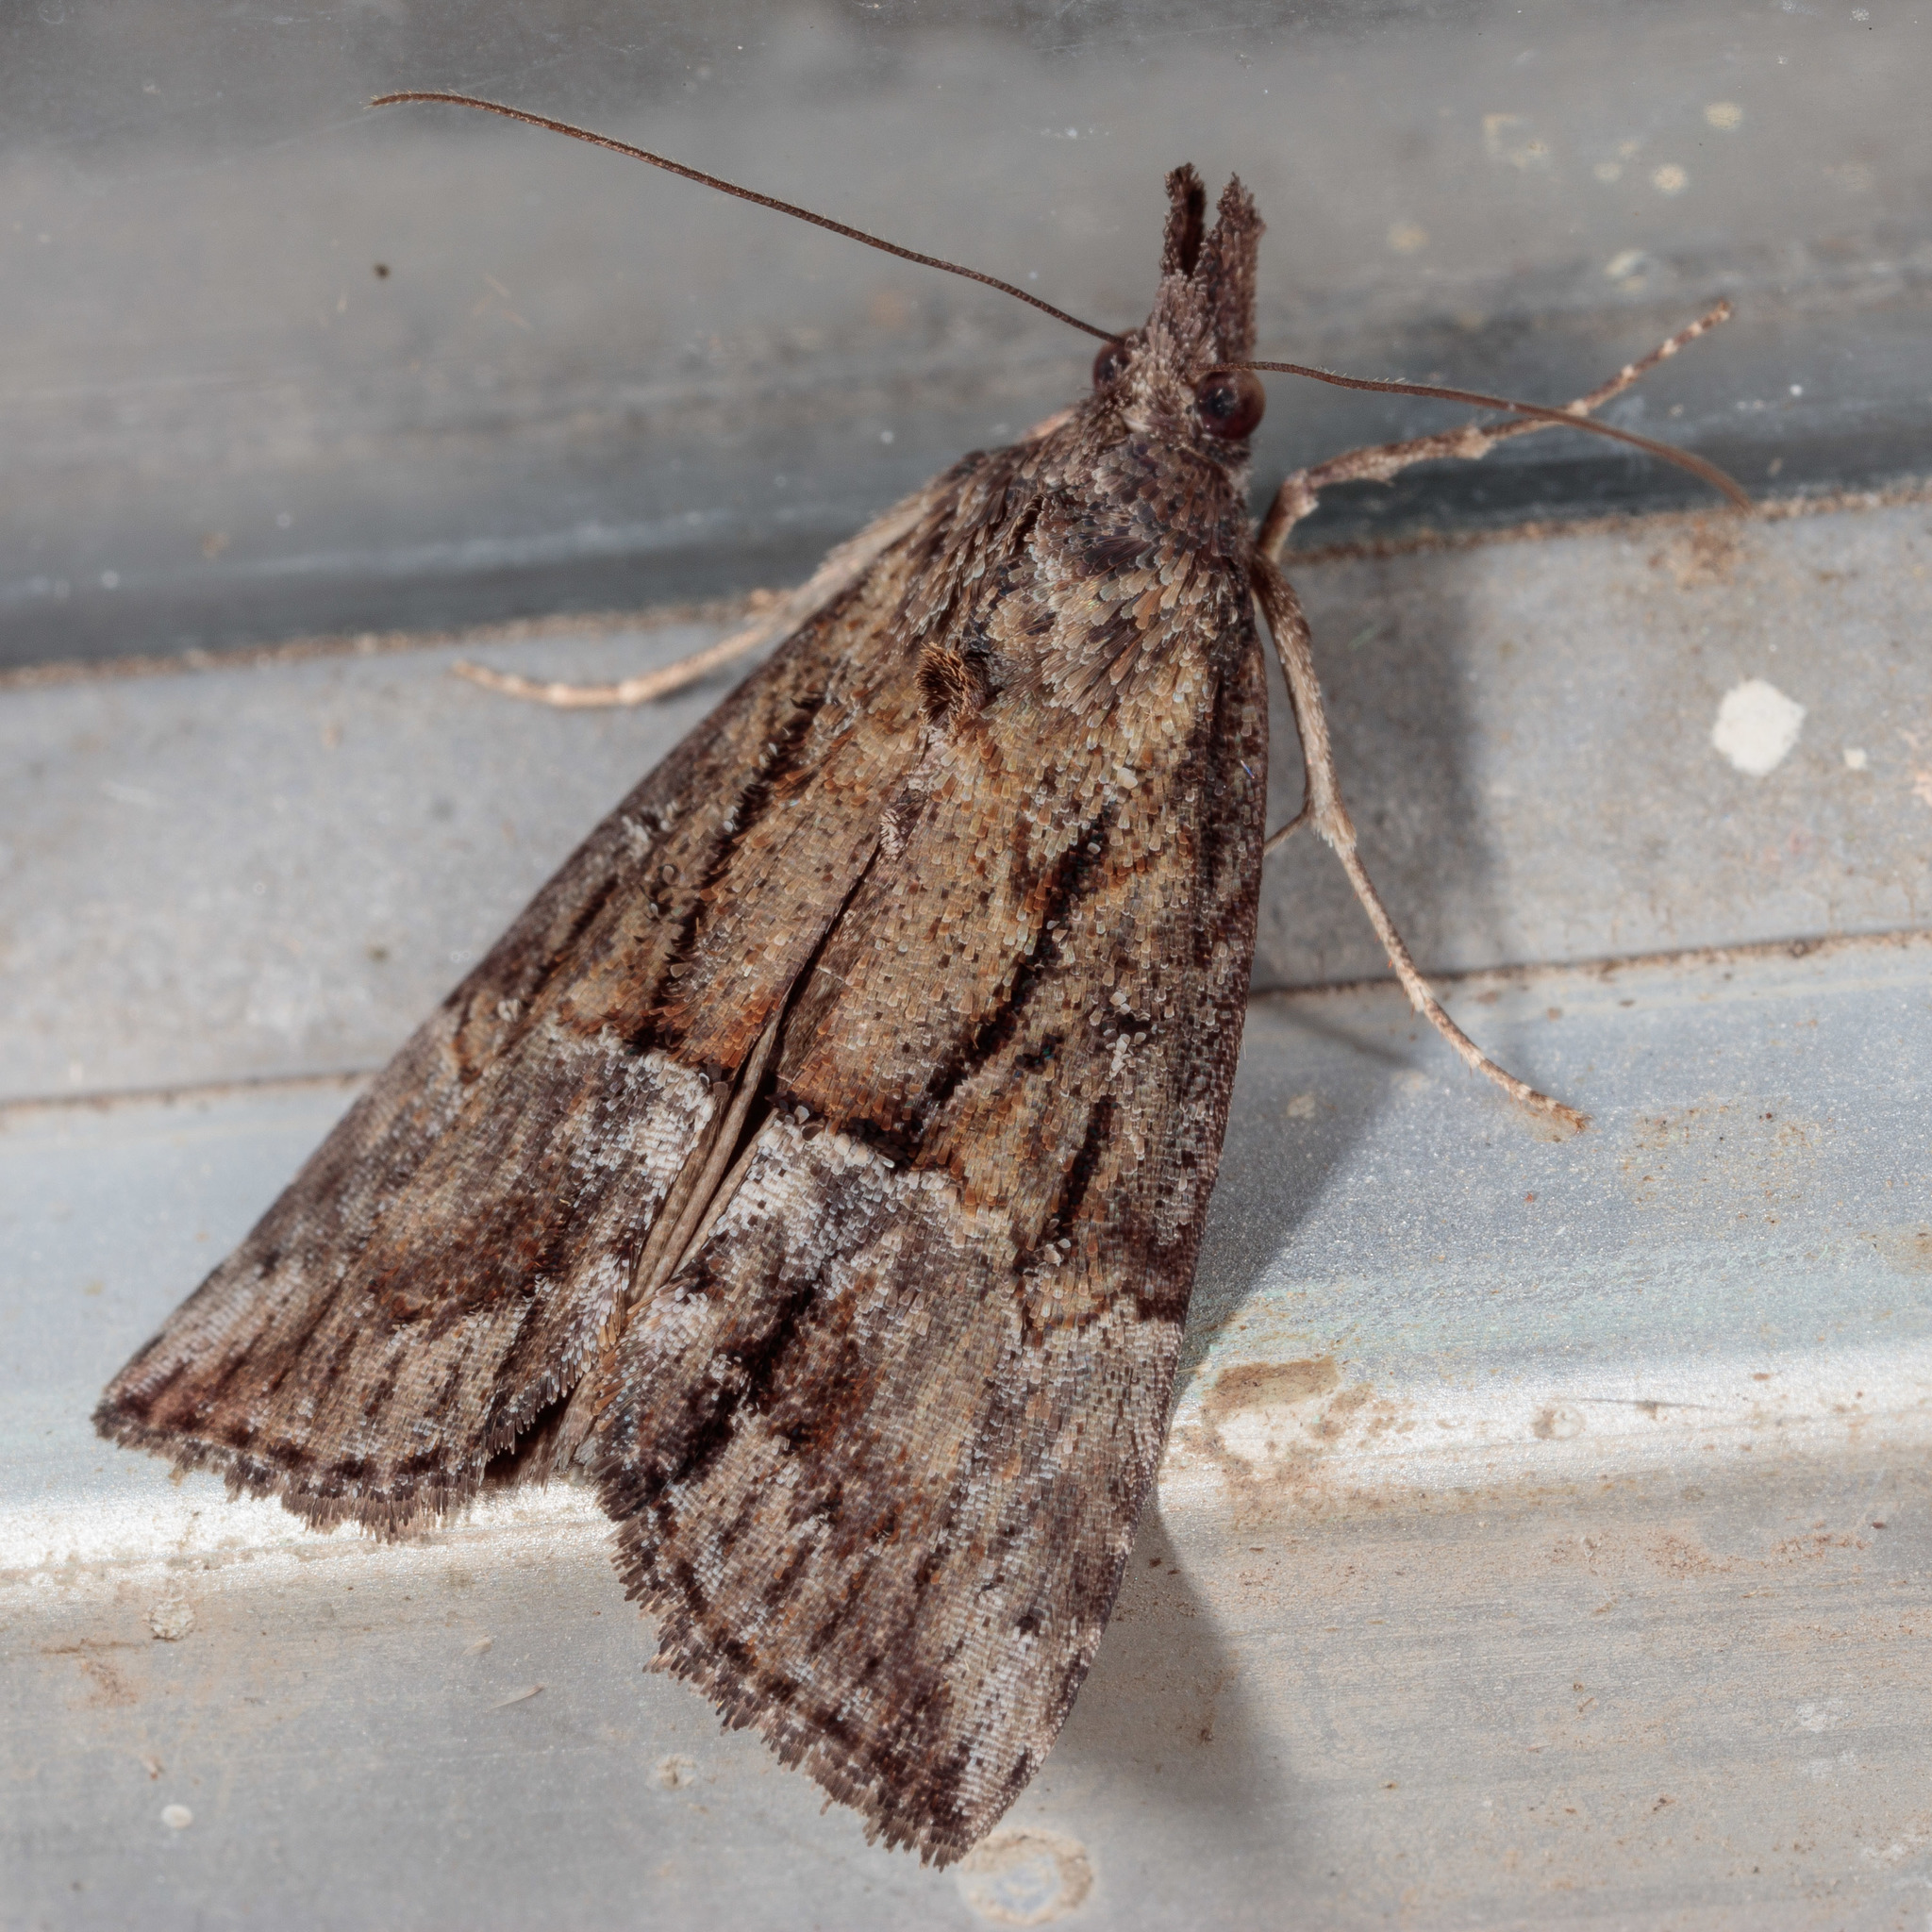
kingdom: Animalia
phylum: Arthropoda
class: Insecta
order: Lepidoptera
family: Erebidae
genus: Hypena
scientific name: Hypena scabra
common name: Green cloverworm
